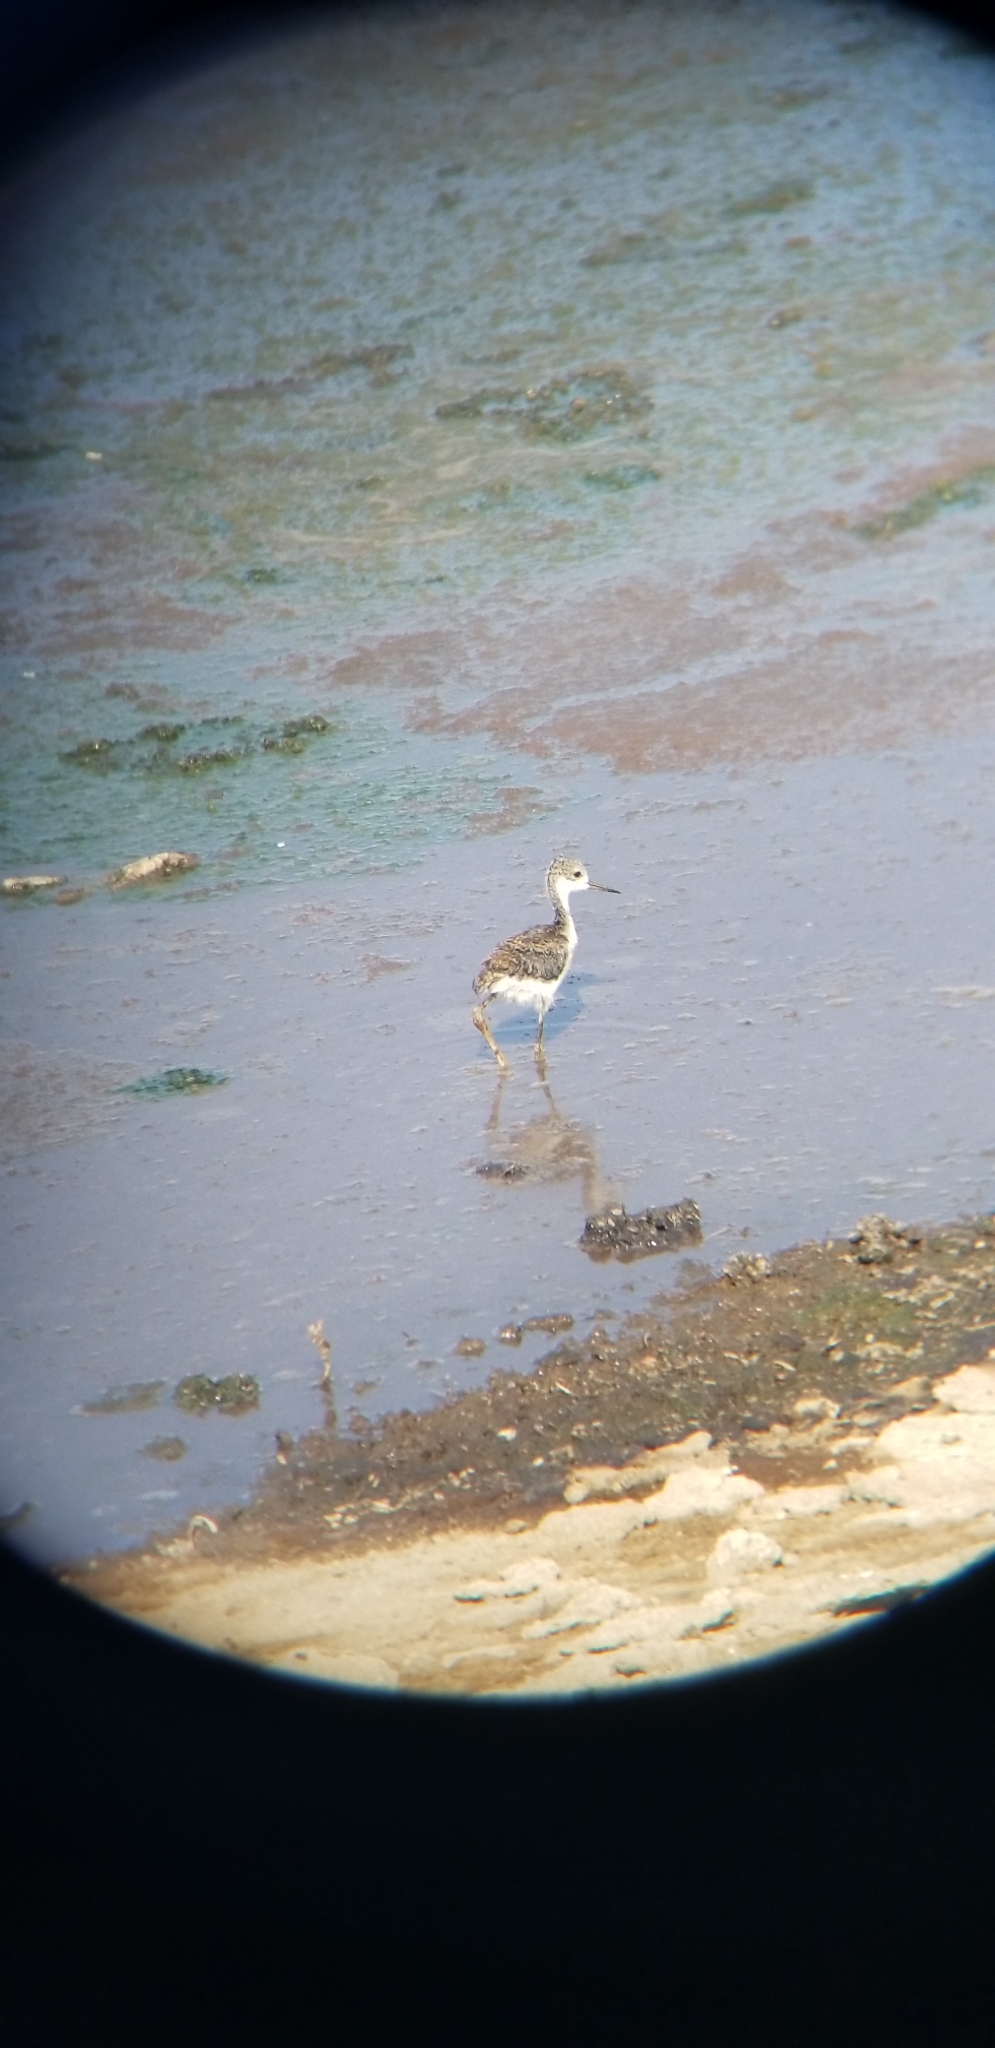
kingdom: Animalia
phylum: Chordata
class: Aves
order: Charadriiformes
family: Recurvirostridae
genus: Himantopus
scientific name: Himantopus mexicanus
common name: Black-necked stilt
